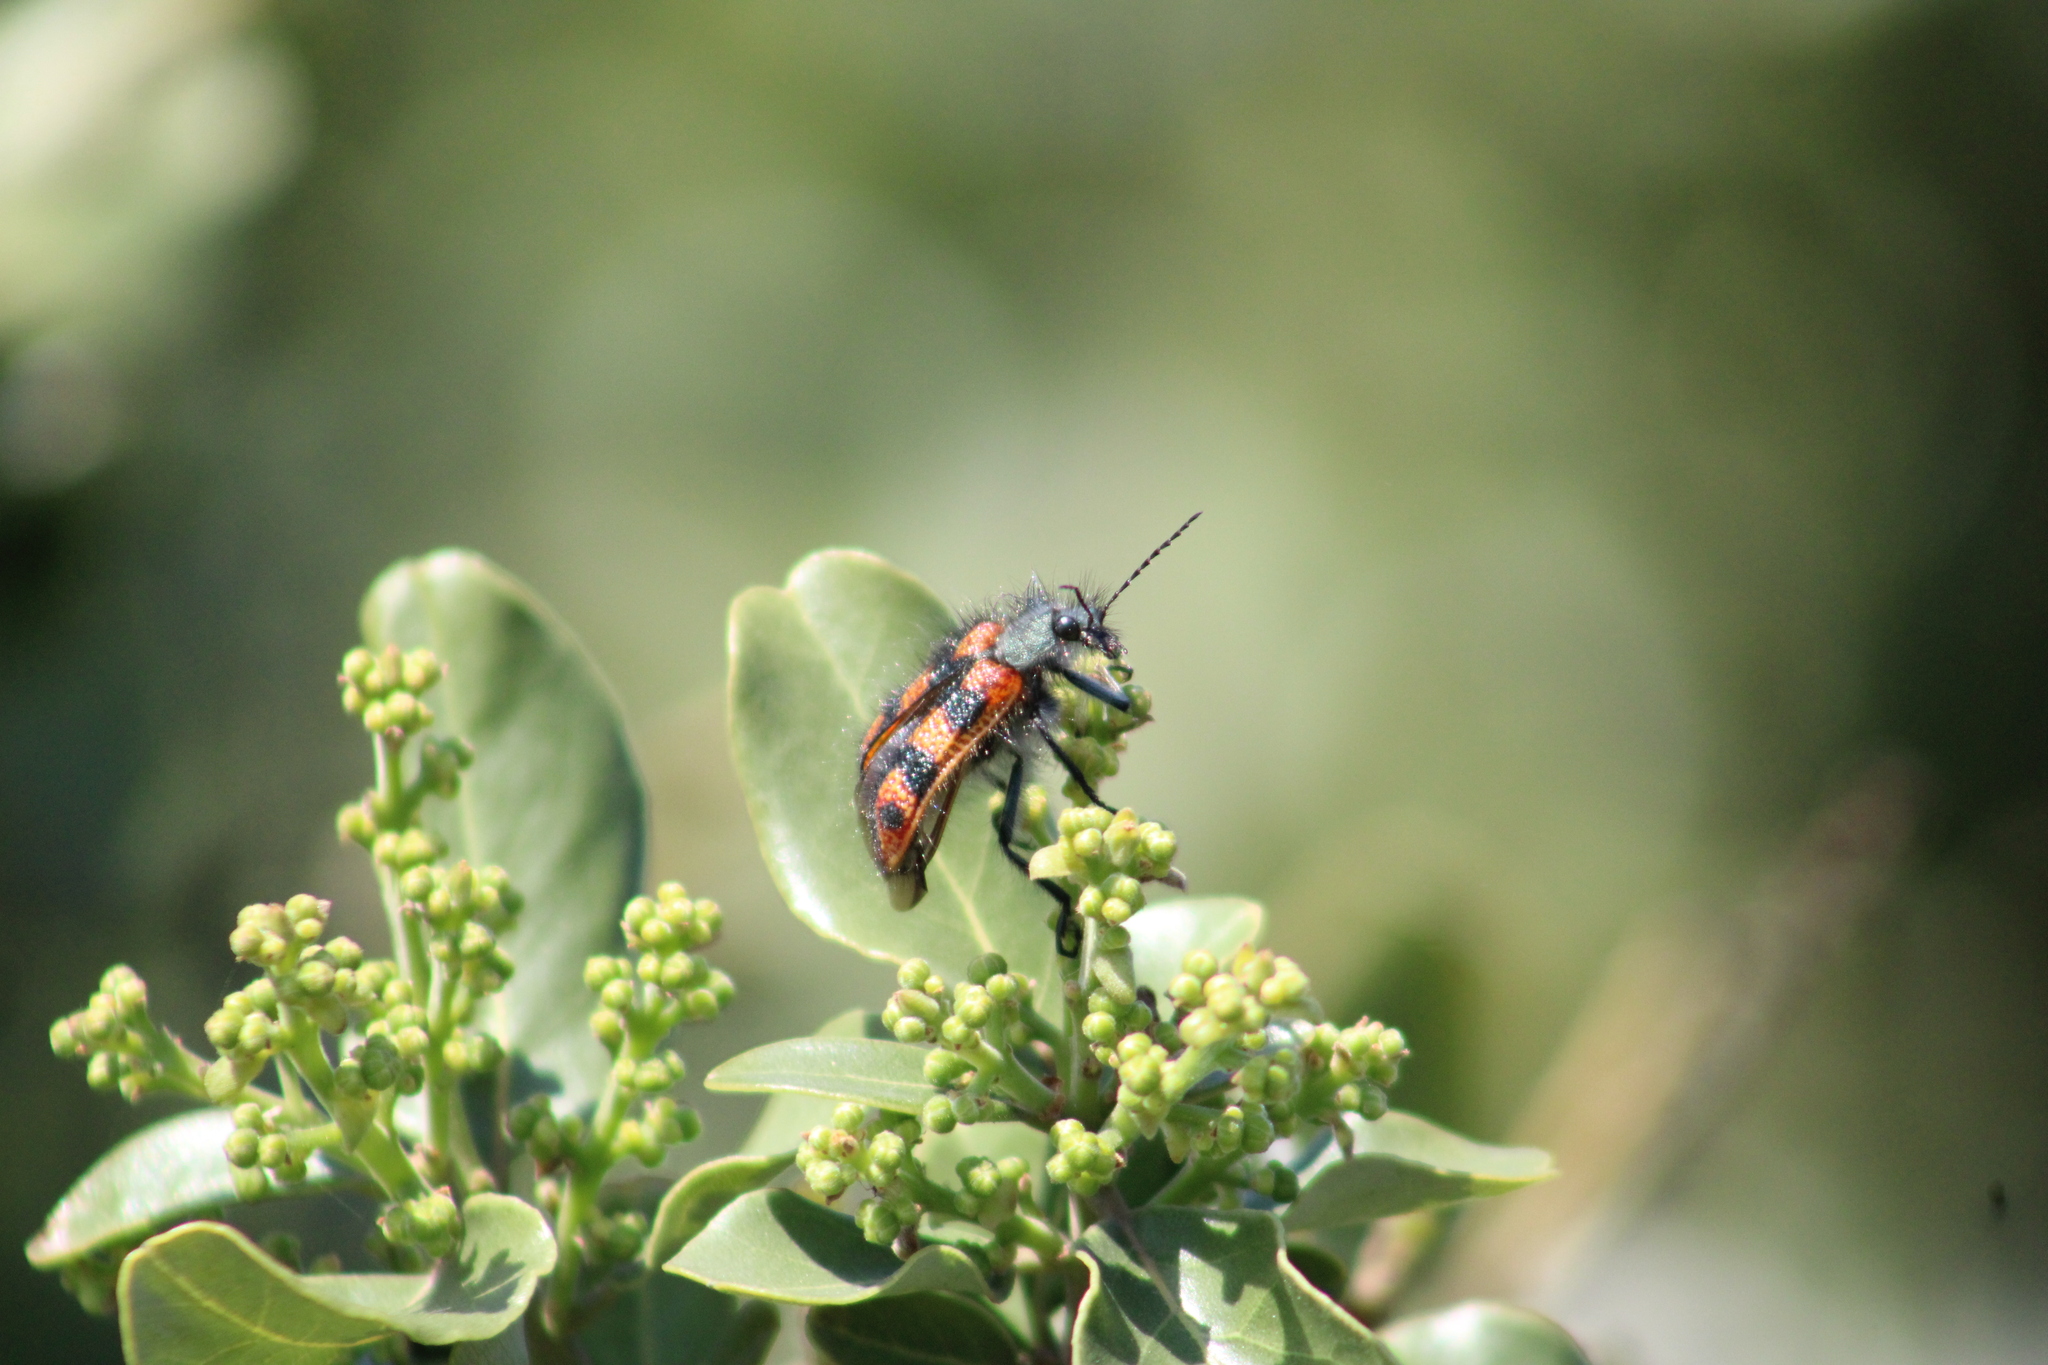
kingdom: Animalia
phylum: Arthropoda
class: Insecta
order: Coleoptera
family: Melyridae
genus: Astylus
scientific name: Astylus
